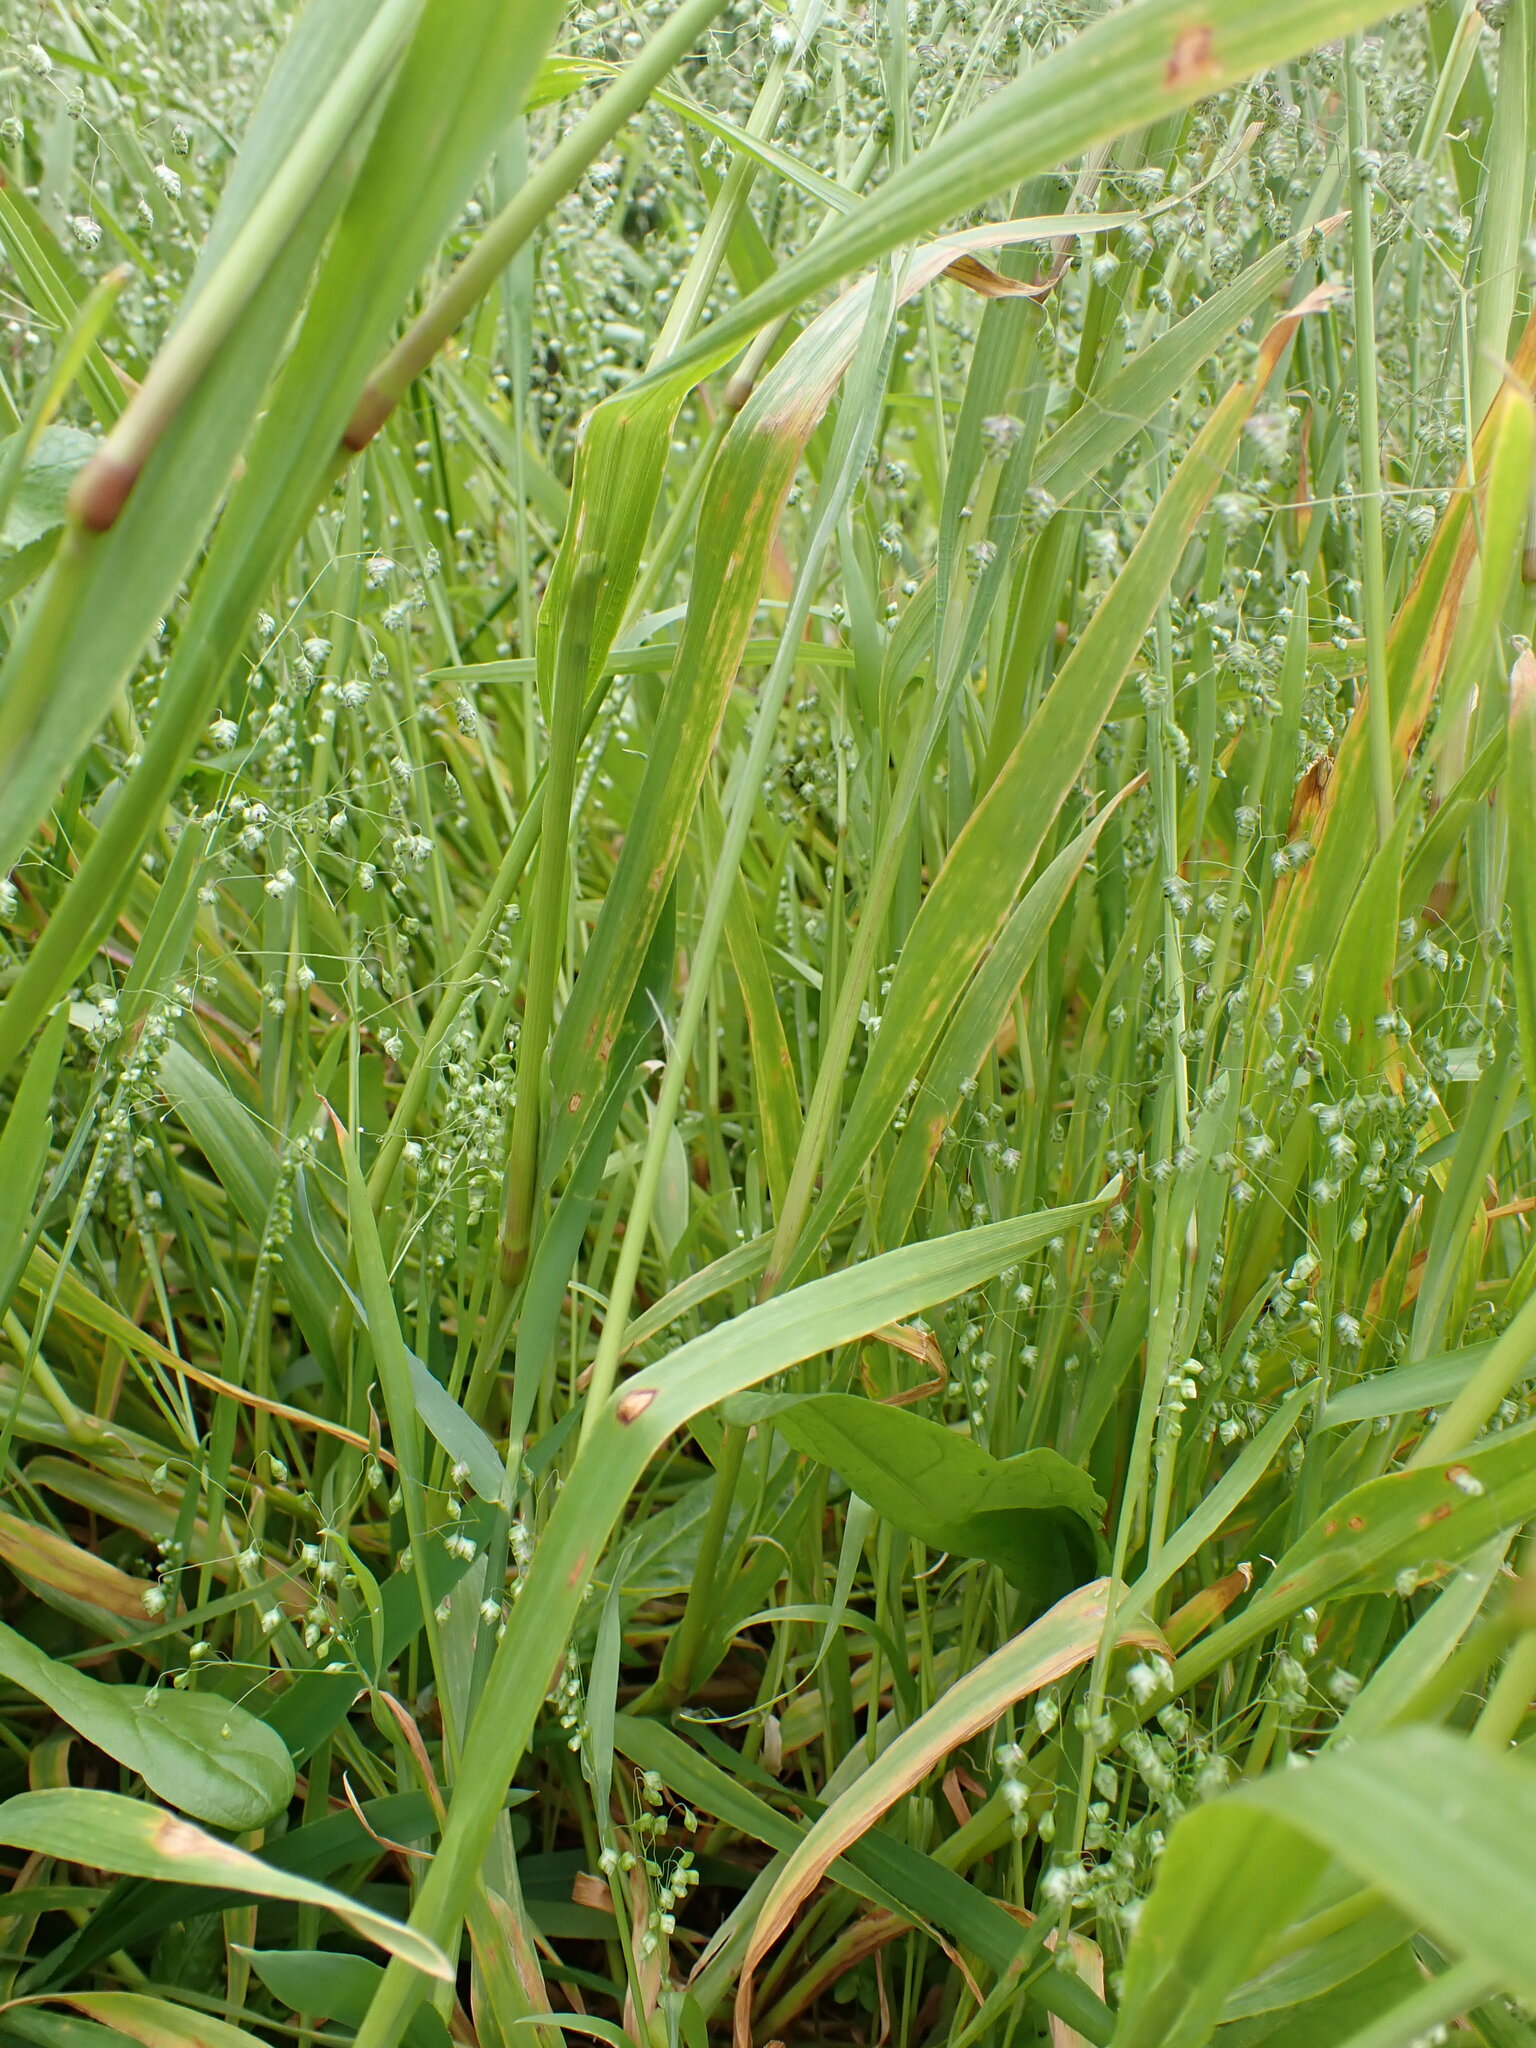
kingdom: Plantae
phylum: Tracheophyta
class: Liliopsida
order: Poales
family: Poaceae
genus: Briza
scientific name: Briza minor
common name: Lesser quaking-grass
